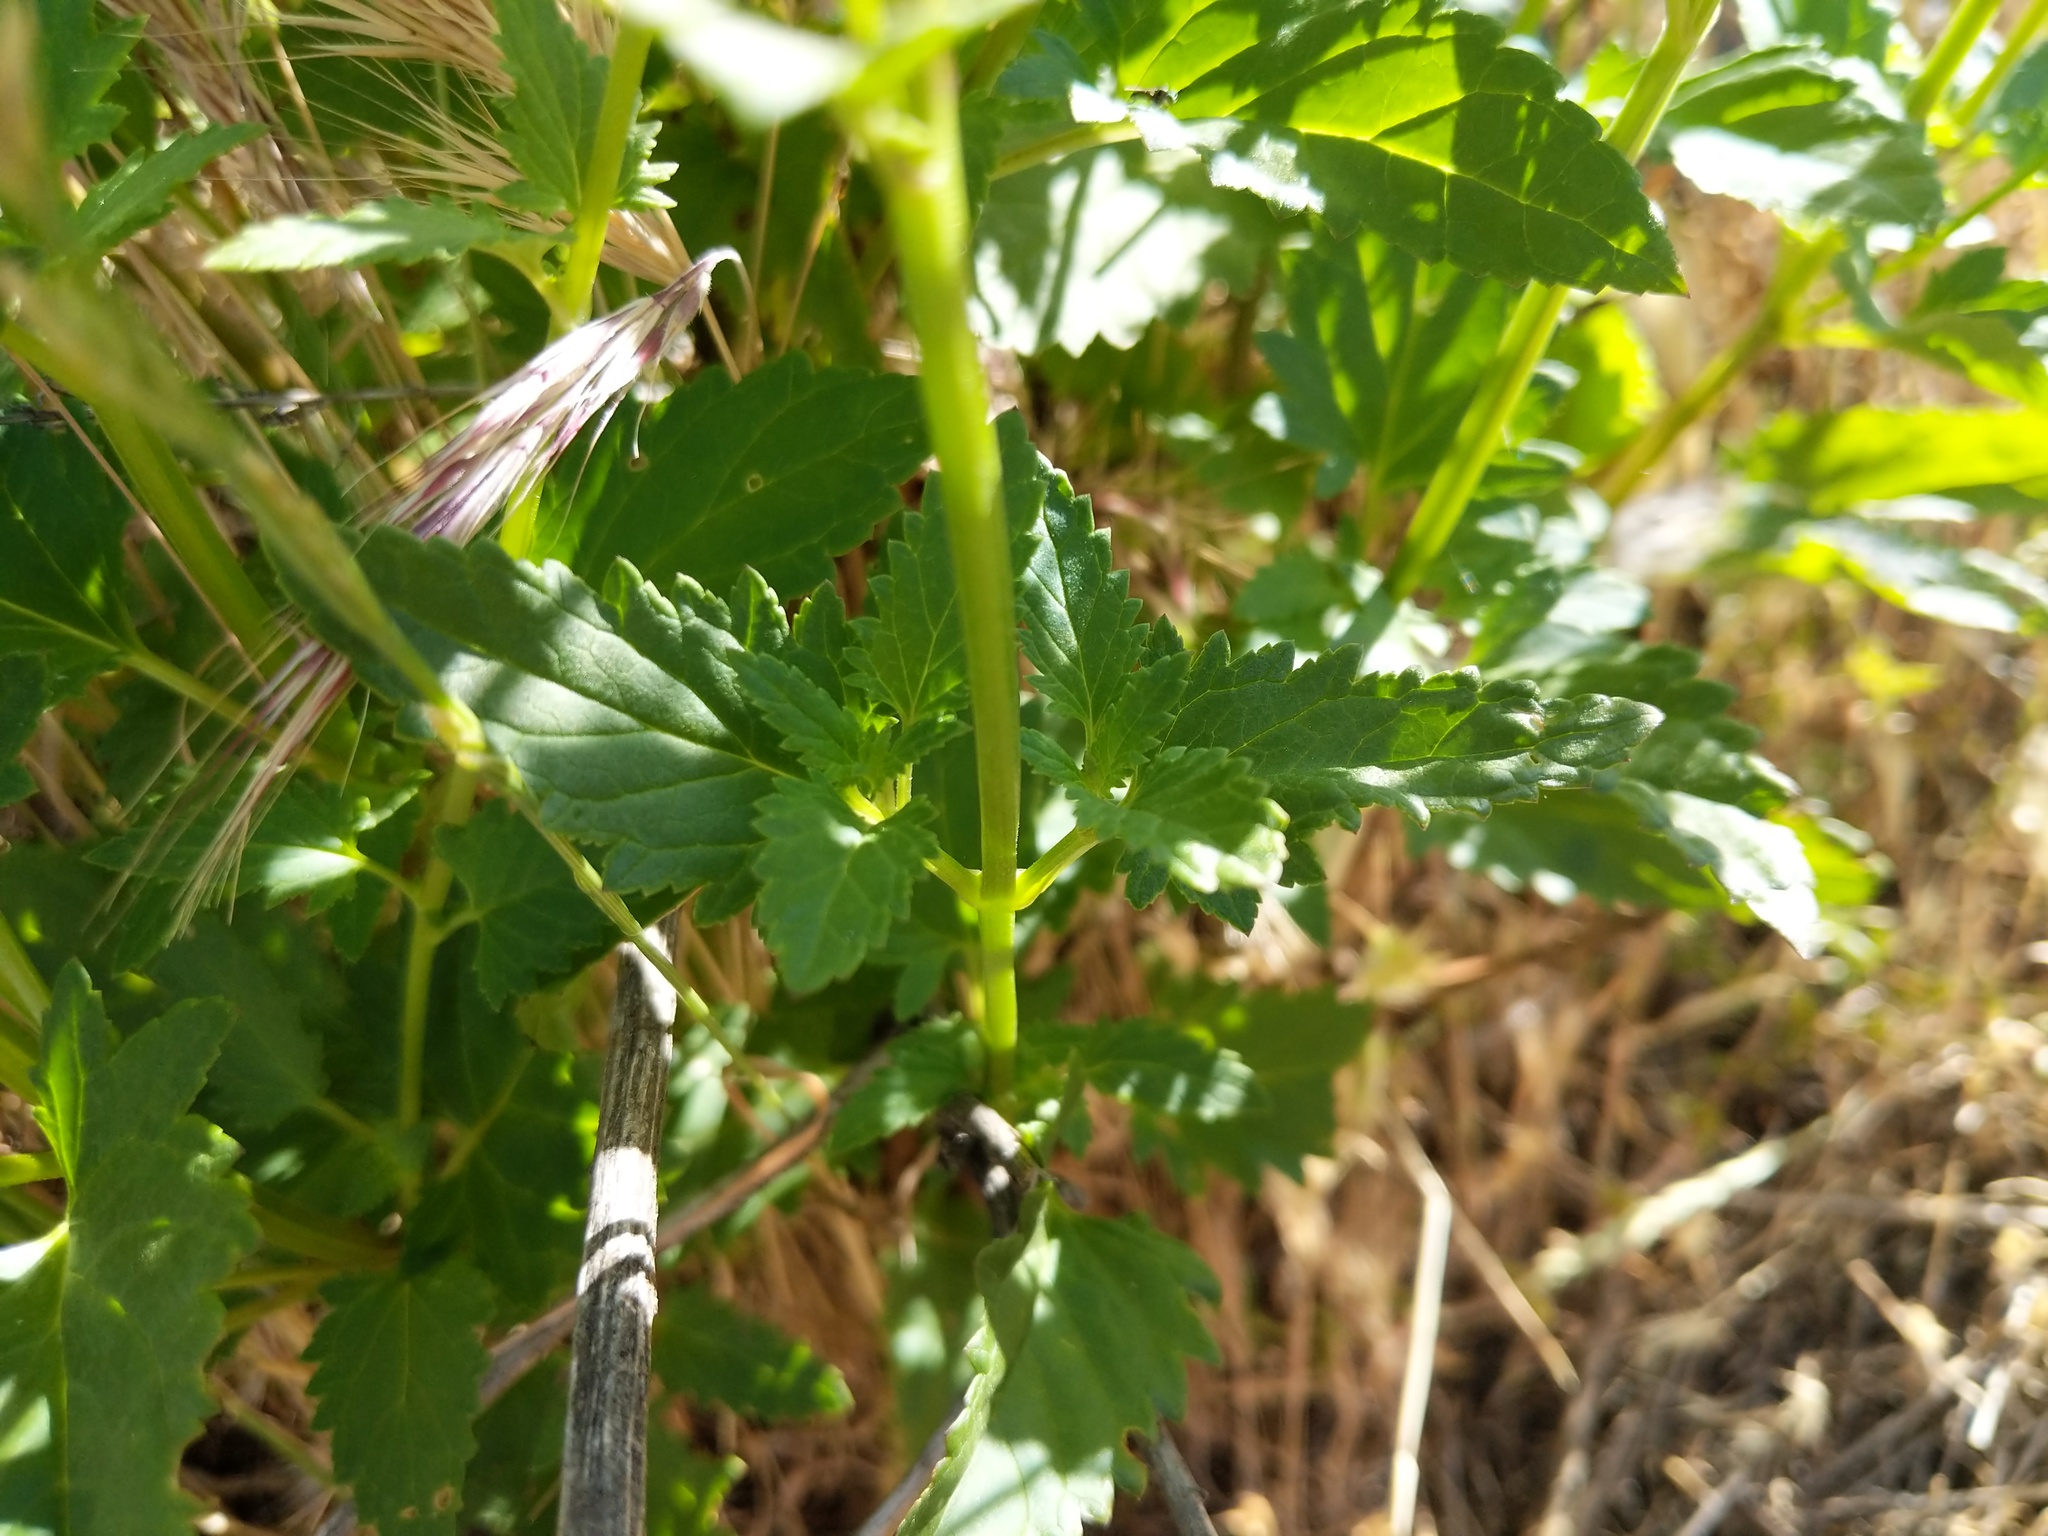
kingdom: Plantae
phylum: Tracheophyta
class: Magnoliopsida
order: Lamiales
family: Scrophulariaceae
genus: Scrophularia
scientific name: Scrophularia californica
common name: California figwort
